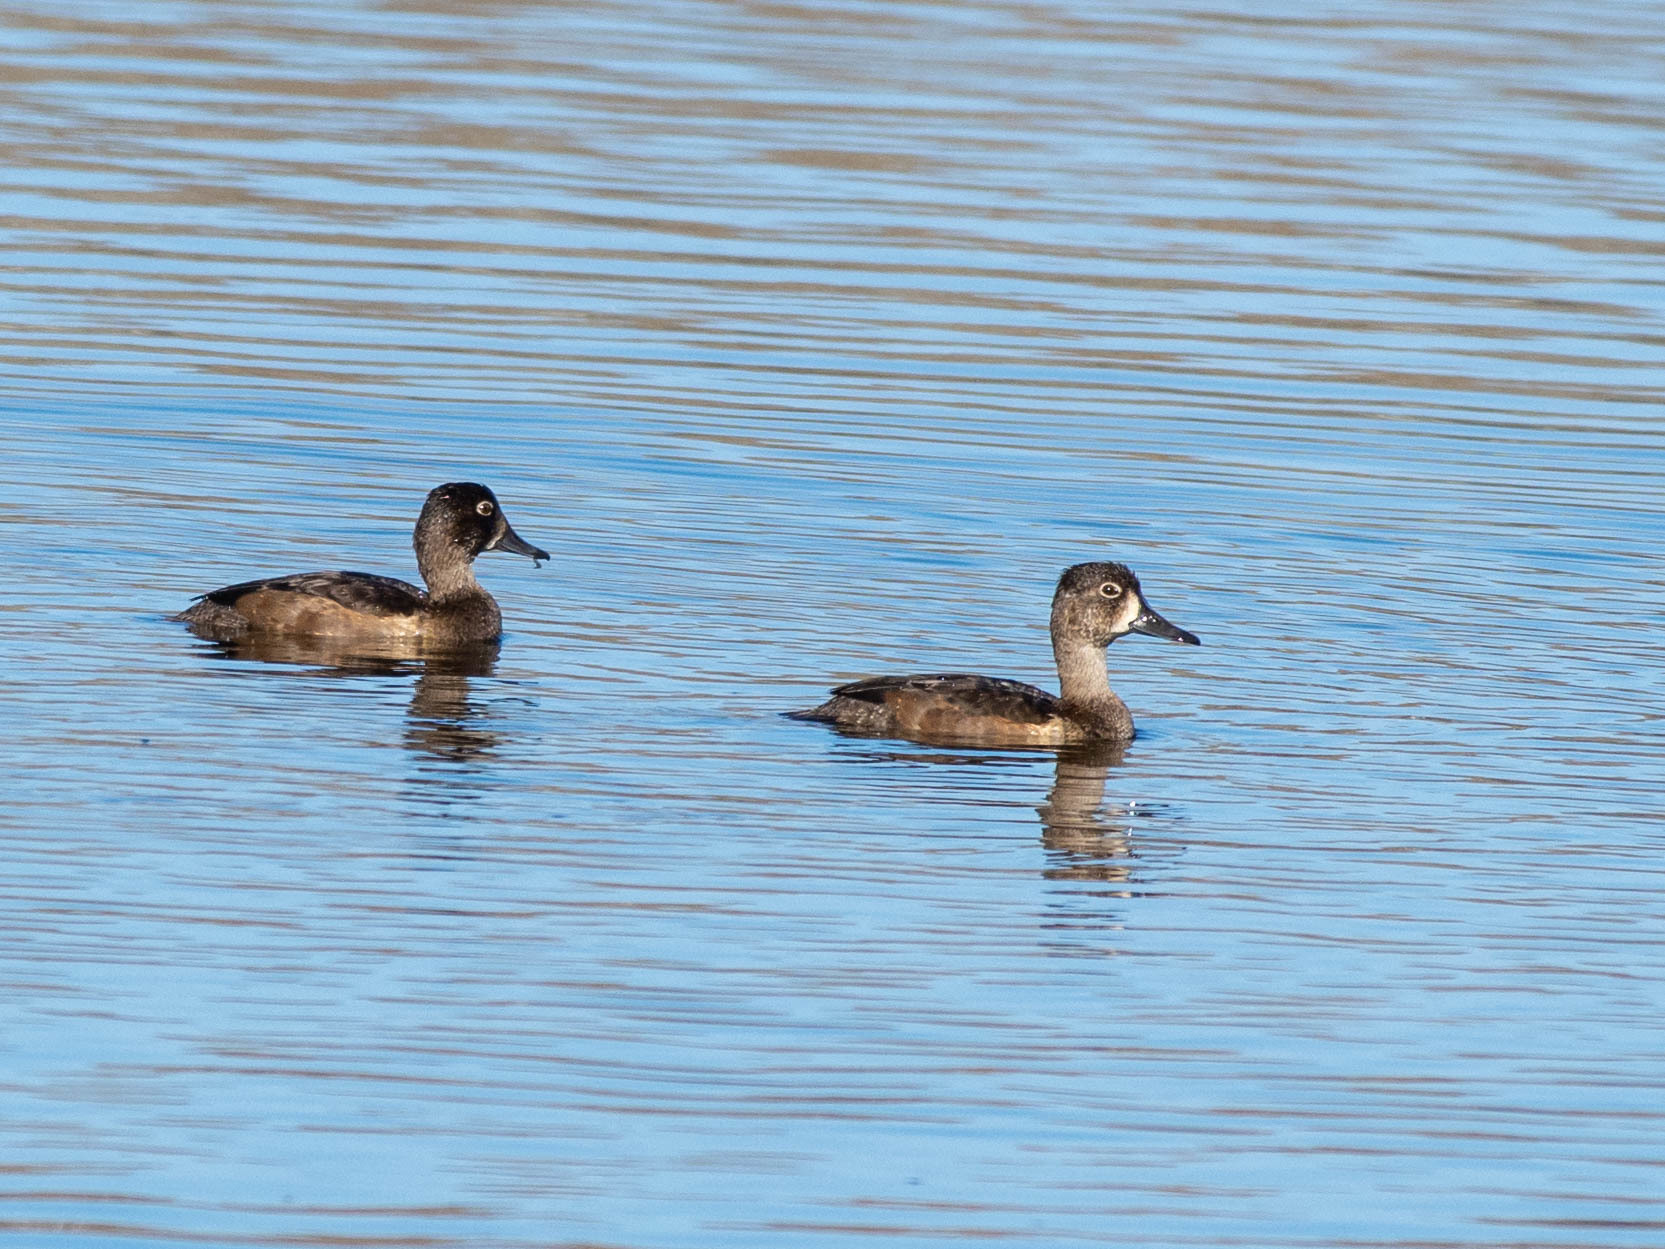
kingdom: Animalia
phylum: Chordata
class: Aves
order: Anseriformes
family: Anatidae
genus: Aythya
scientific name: Aythya collaris
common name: Ring-necked duck
